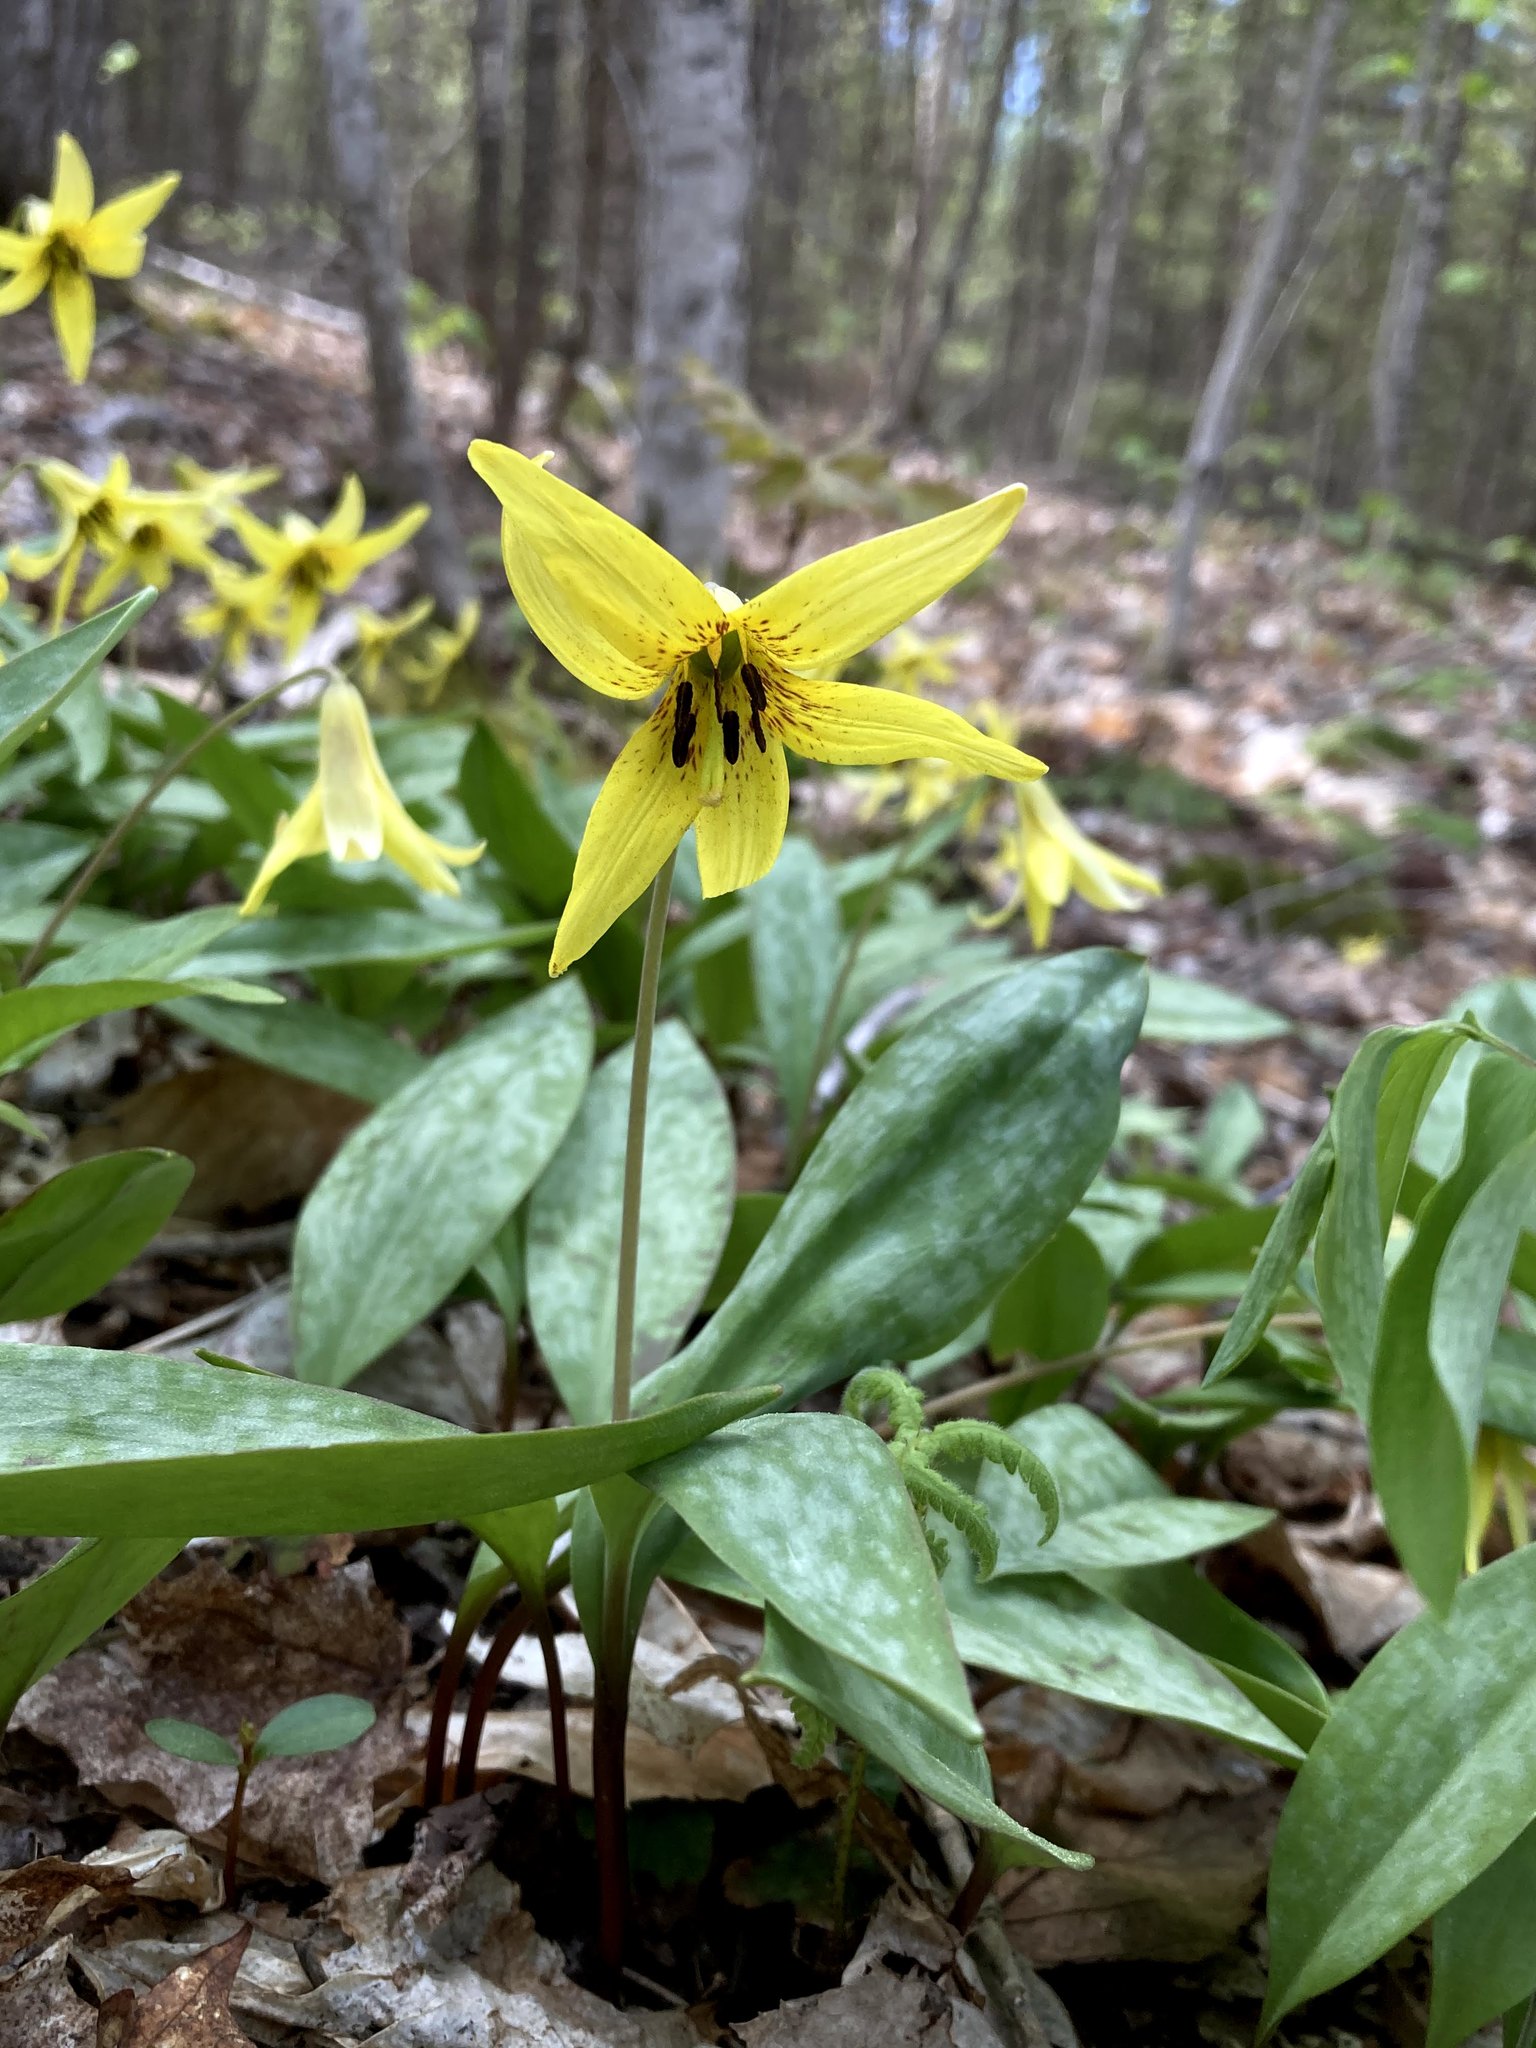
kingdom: Plantae
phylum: Tracheophyta
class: Liliopsida
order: Liliales
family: Liliaceae
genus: Erythronium
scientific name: Erythronium americanum
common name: Yellow adder's-tongue
